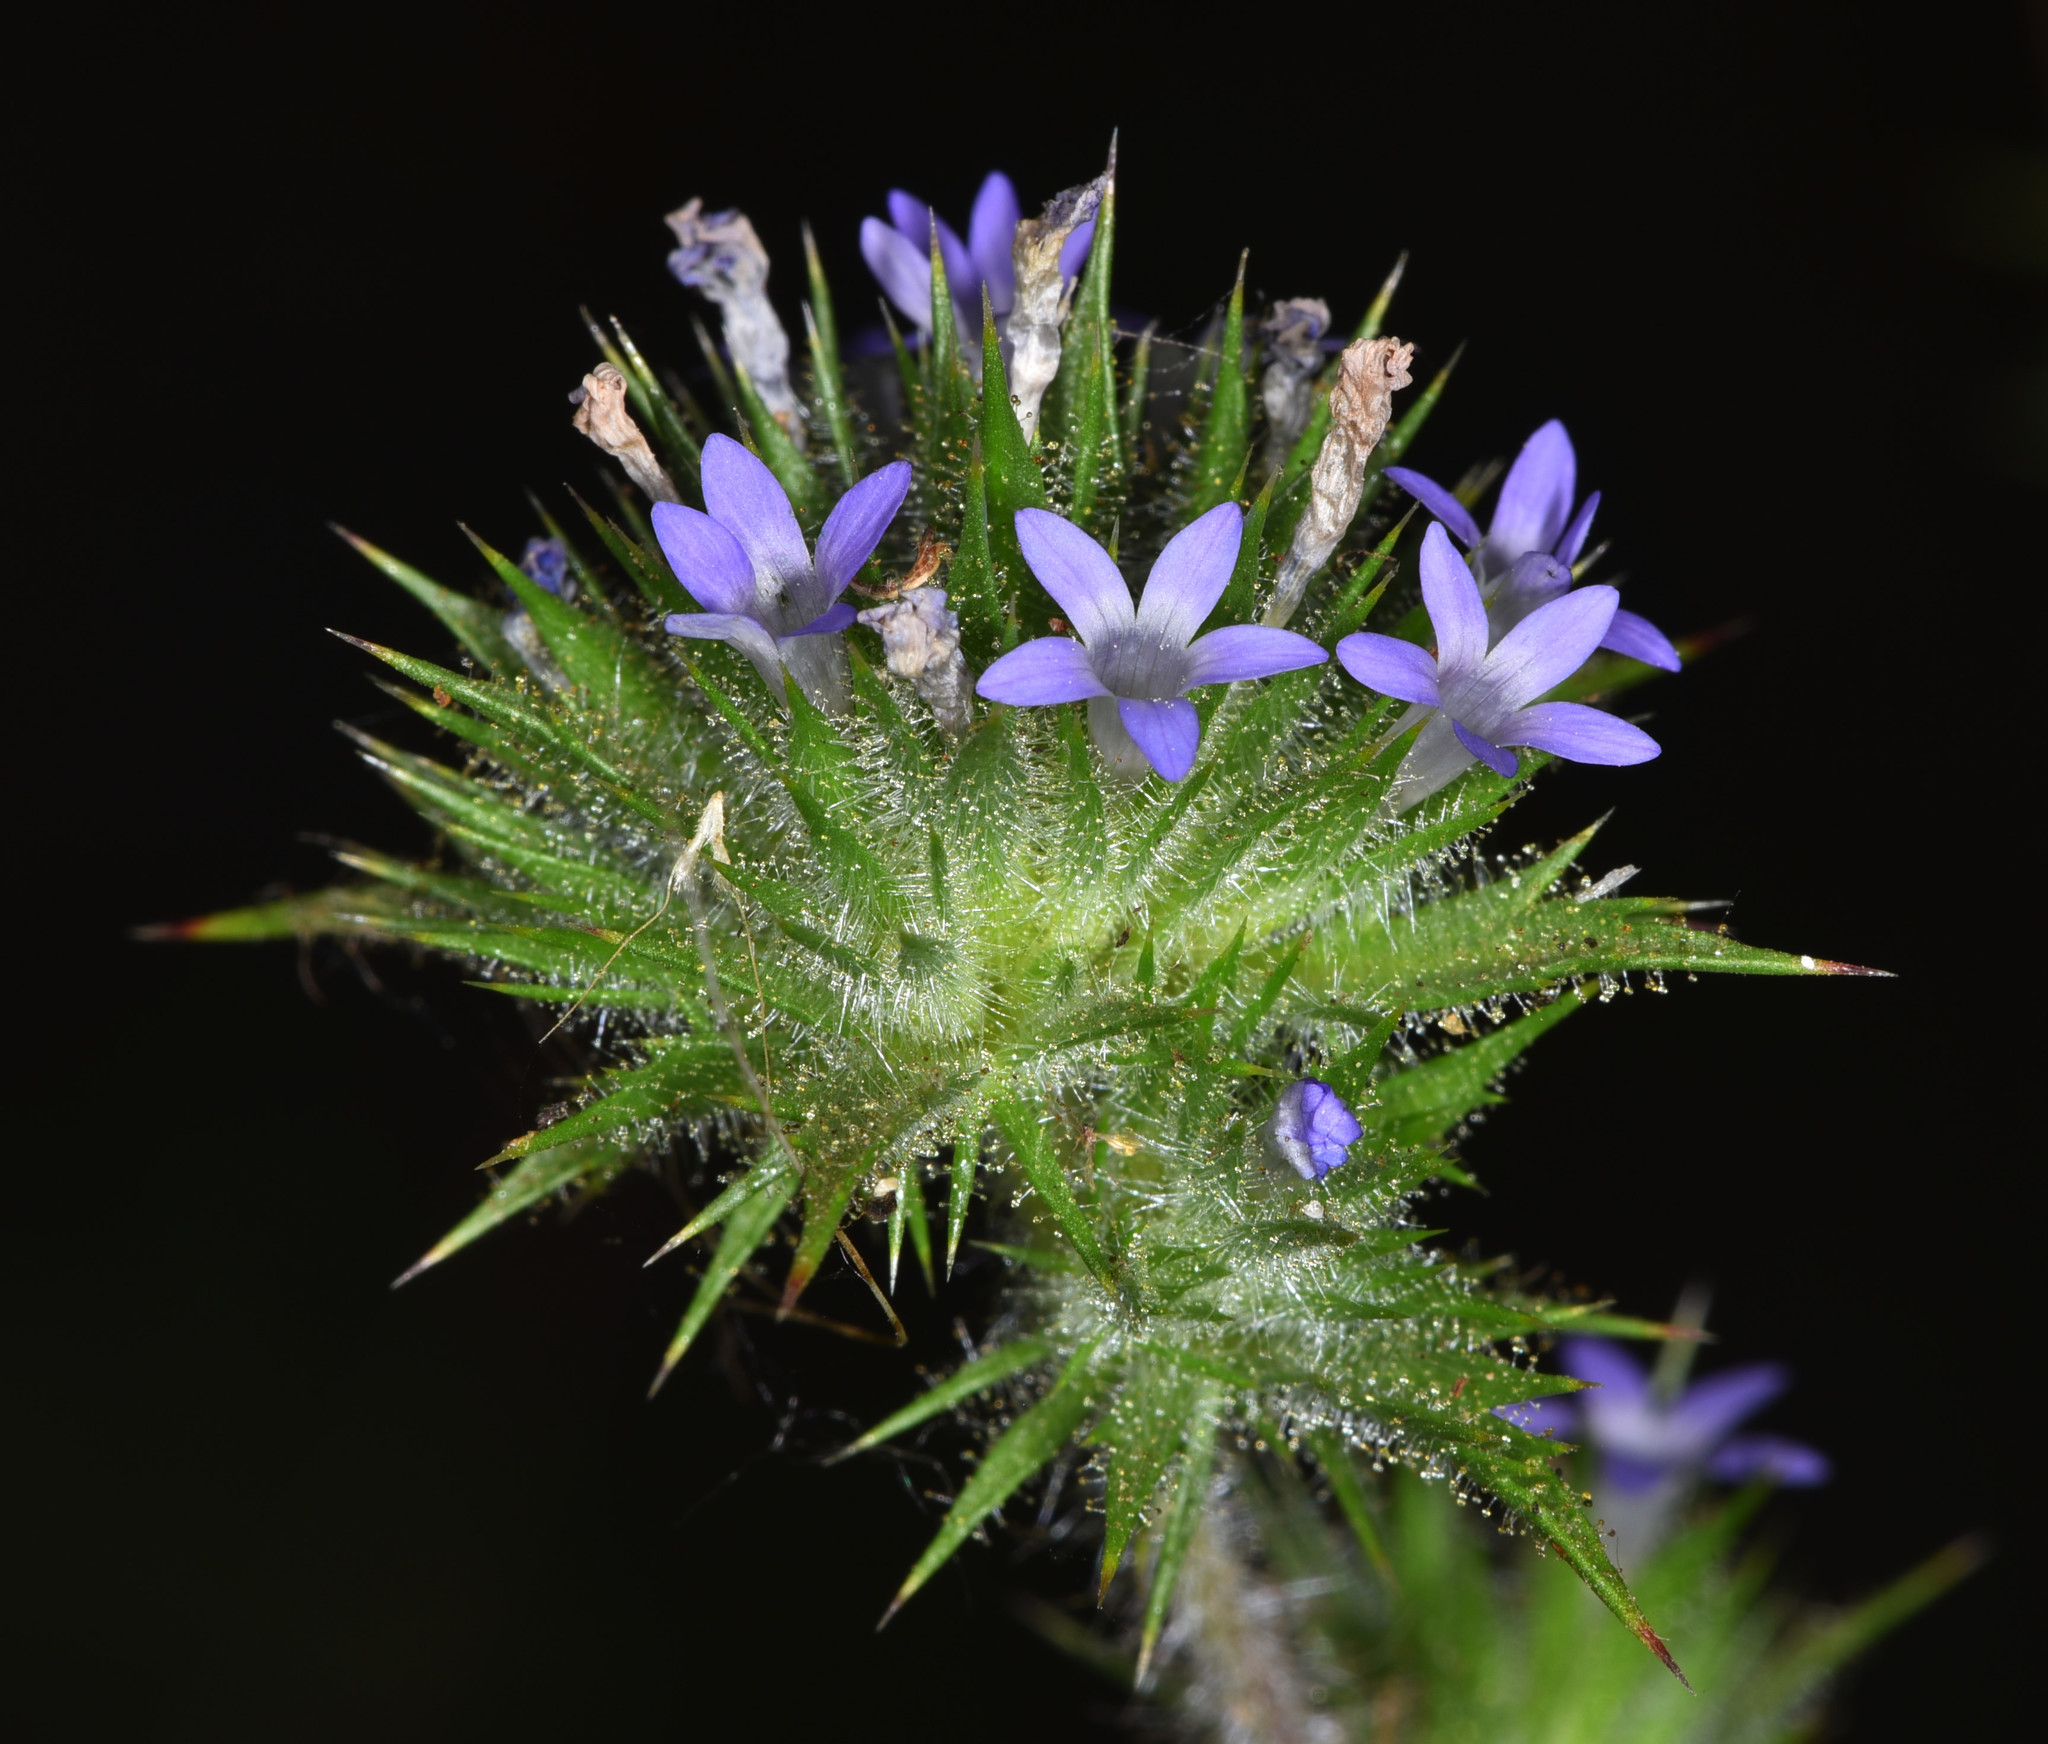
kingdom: Plantae
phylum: Tracheophyta
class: Magnoliopsida
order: Ericales
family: Polemoniaceae
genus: Navarretia
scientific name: Navarretia squarrosa
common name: Skunkweed
